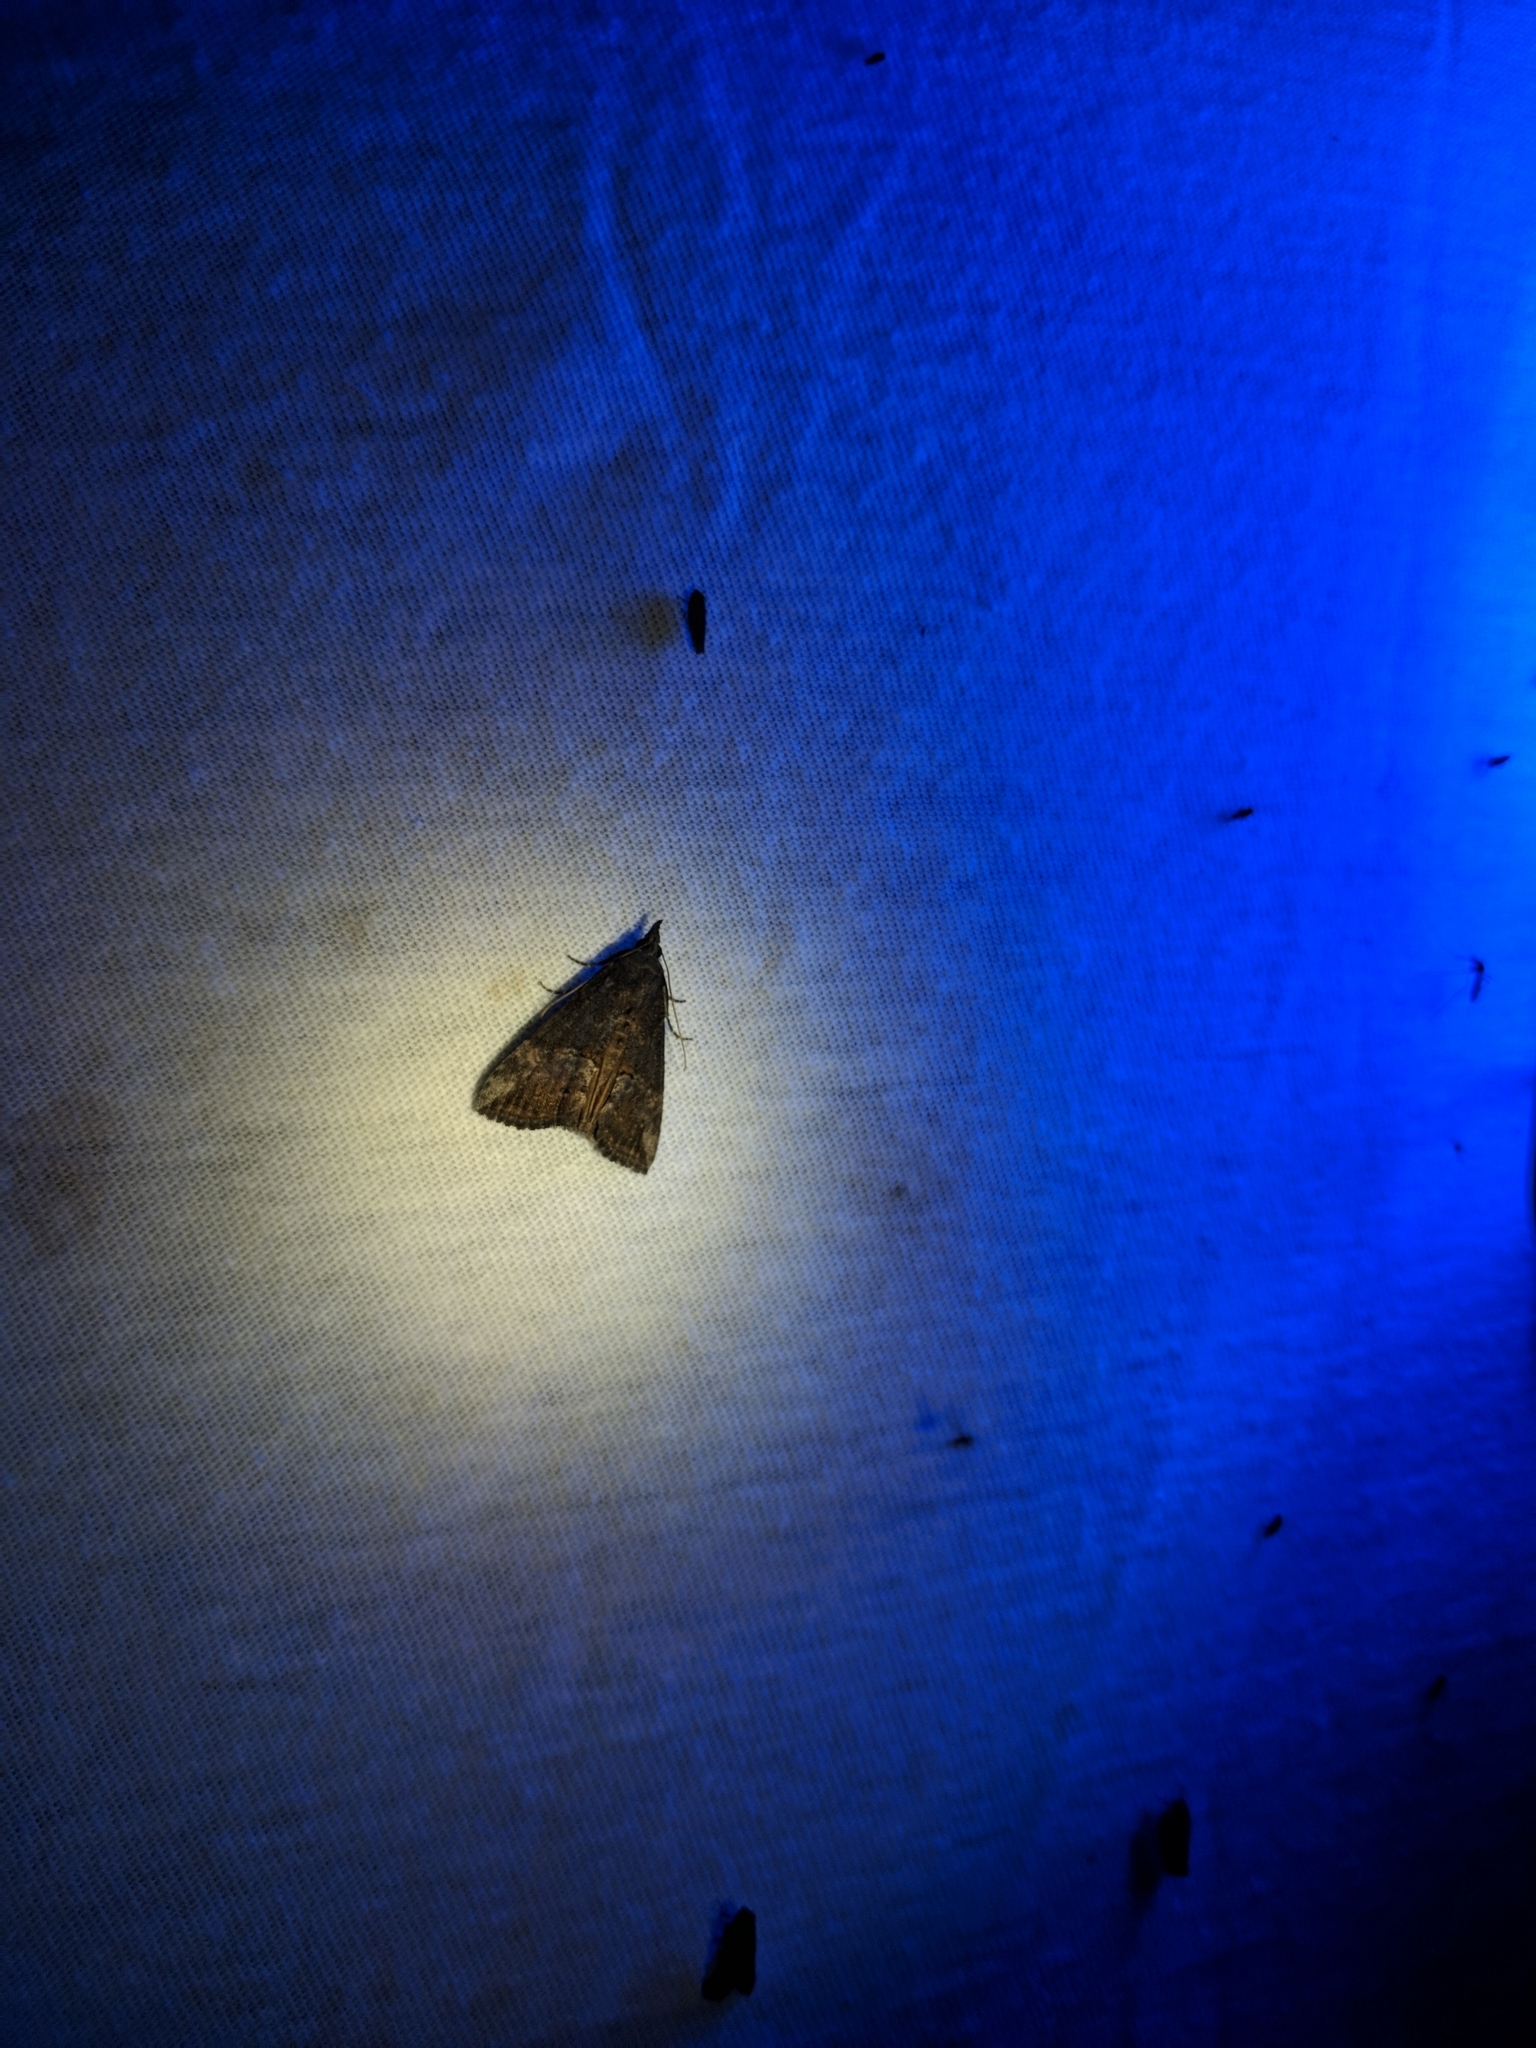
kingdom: Animalia
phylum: Arthropoda
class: Insecta
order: Lepidoptera
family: Erebidae
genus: Hypena
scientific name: Hypena scabra
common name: Green cloverworm
